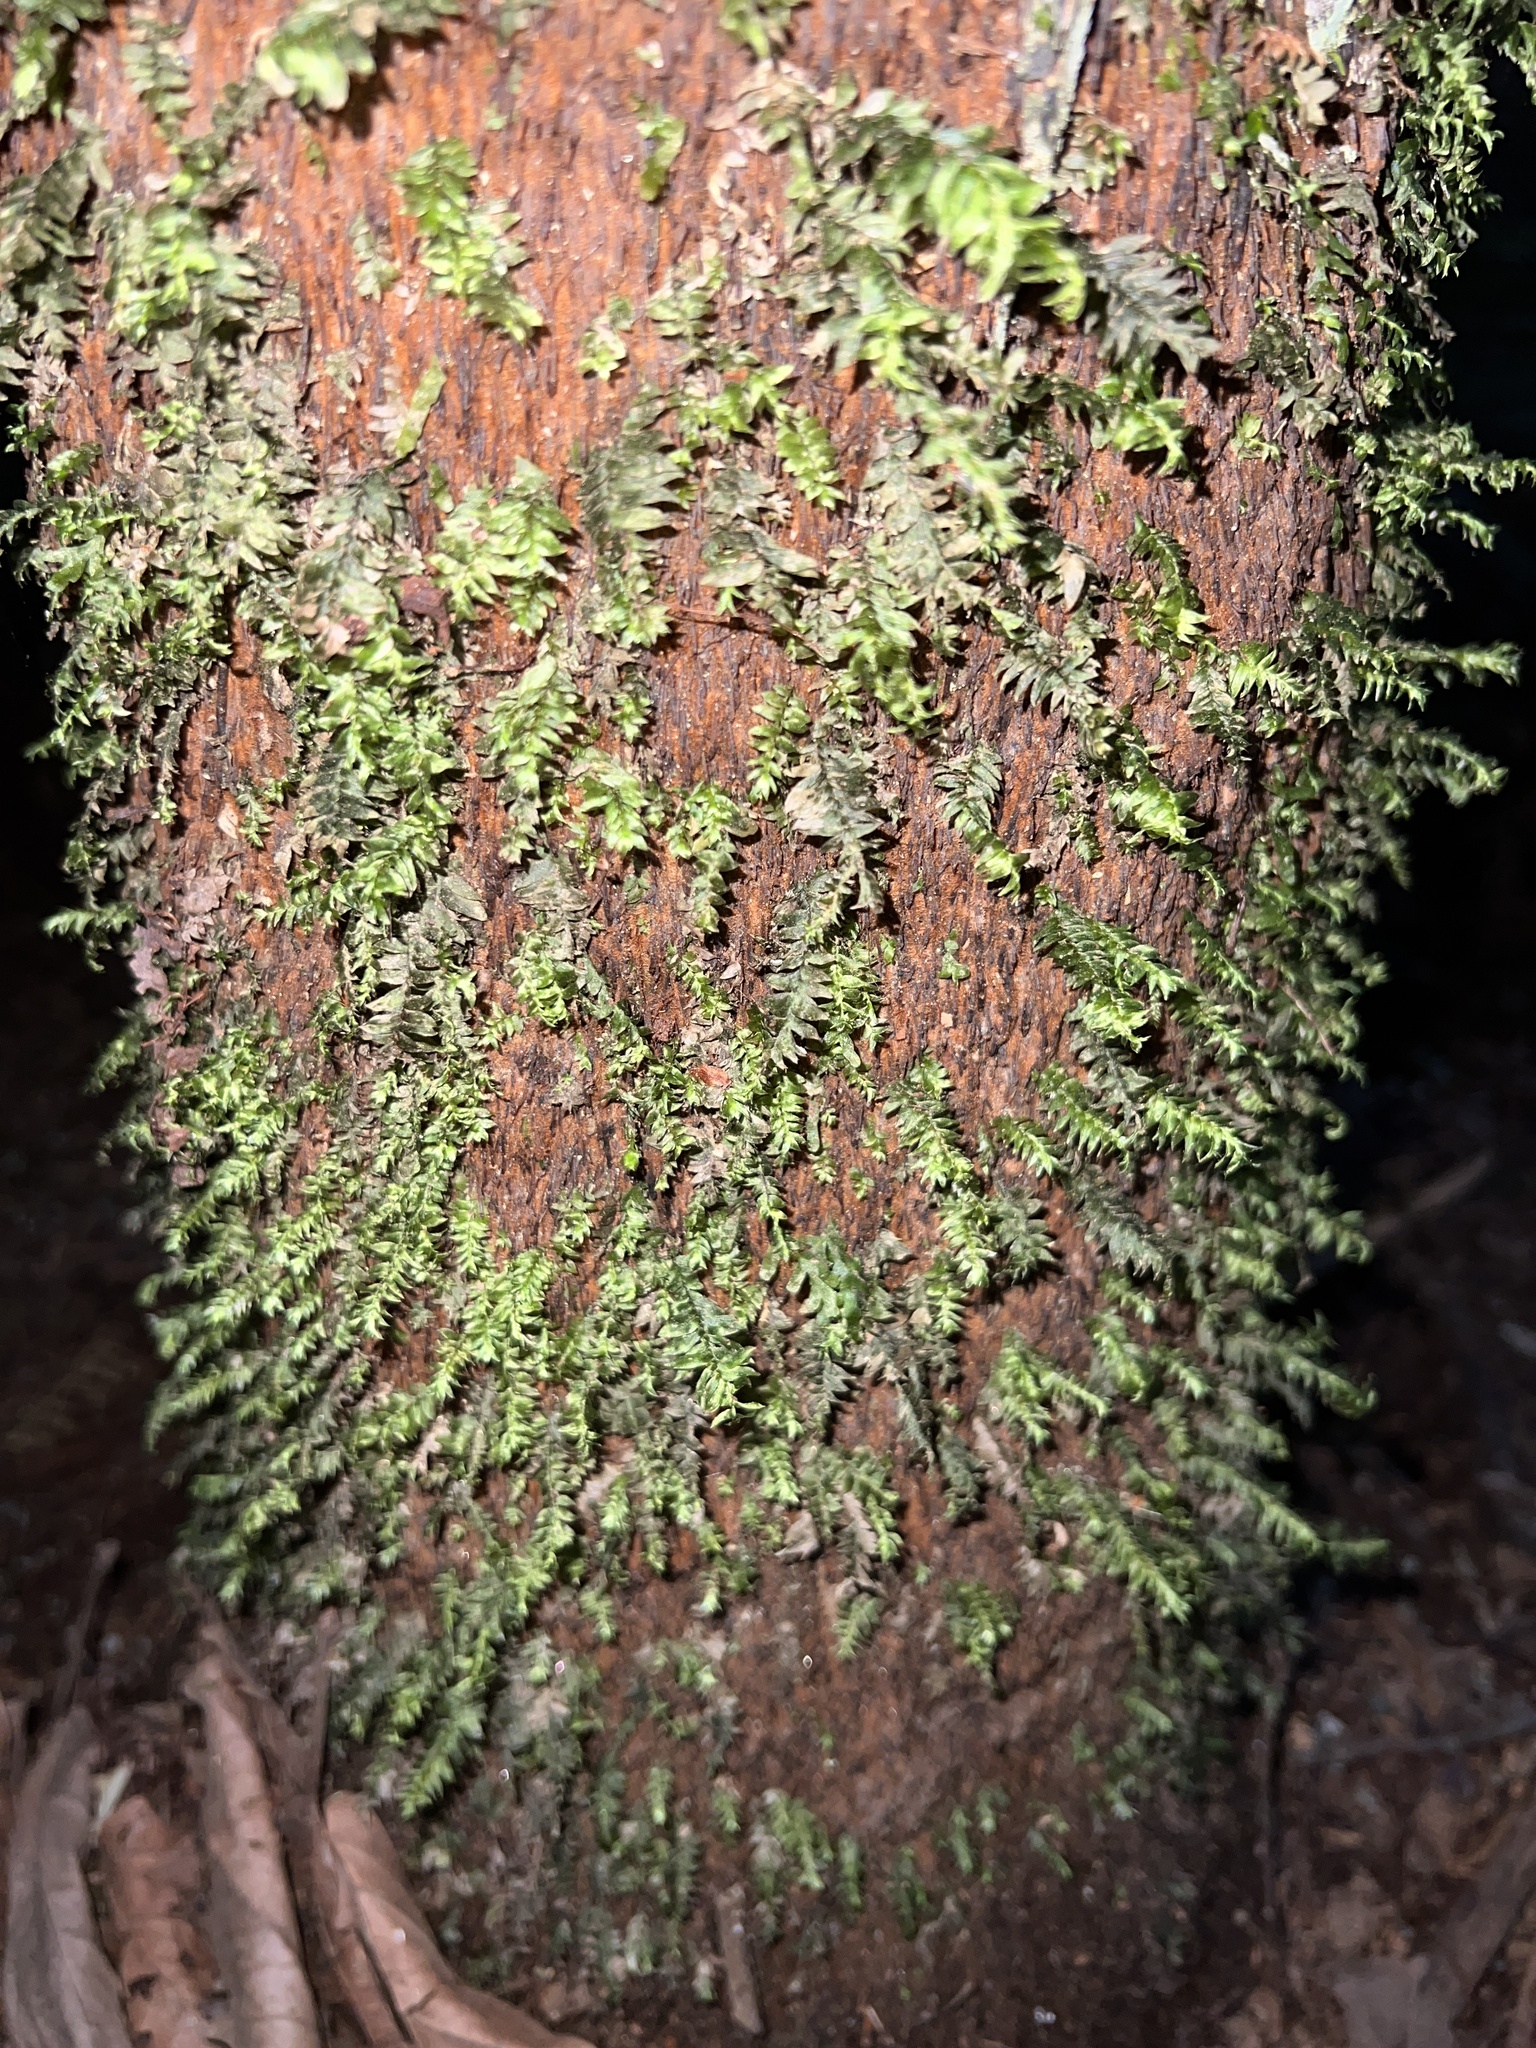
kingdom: Plantae
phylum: Bryophyta
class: Bryopsida
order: Hypopterygiales
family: Hypopterygiaceae
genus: Cyathophorum
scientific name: Cyathophorum bulbosum
